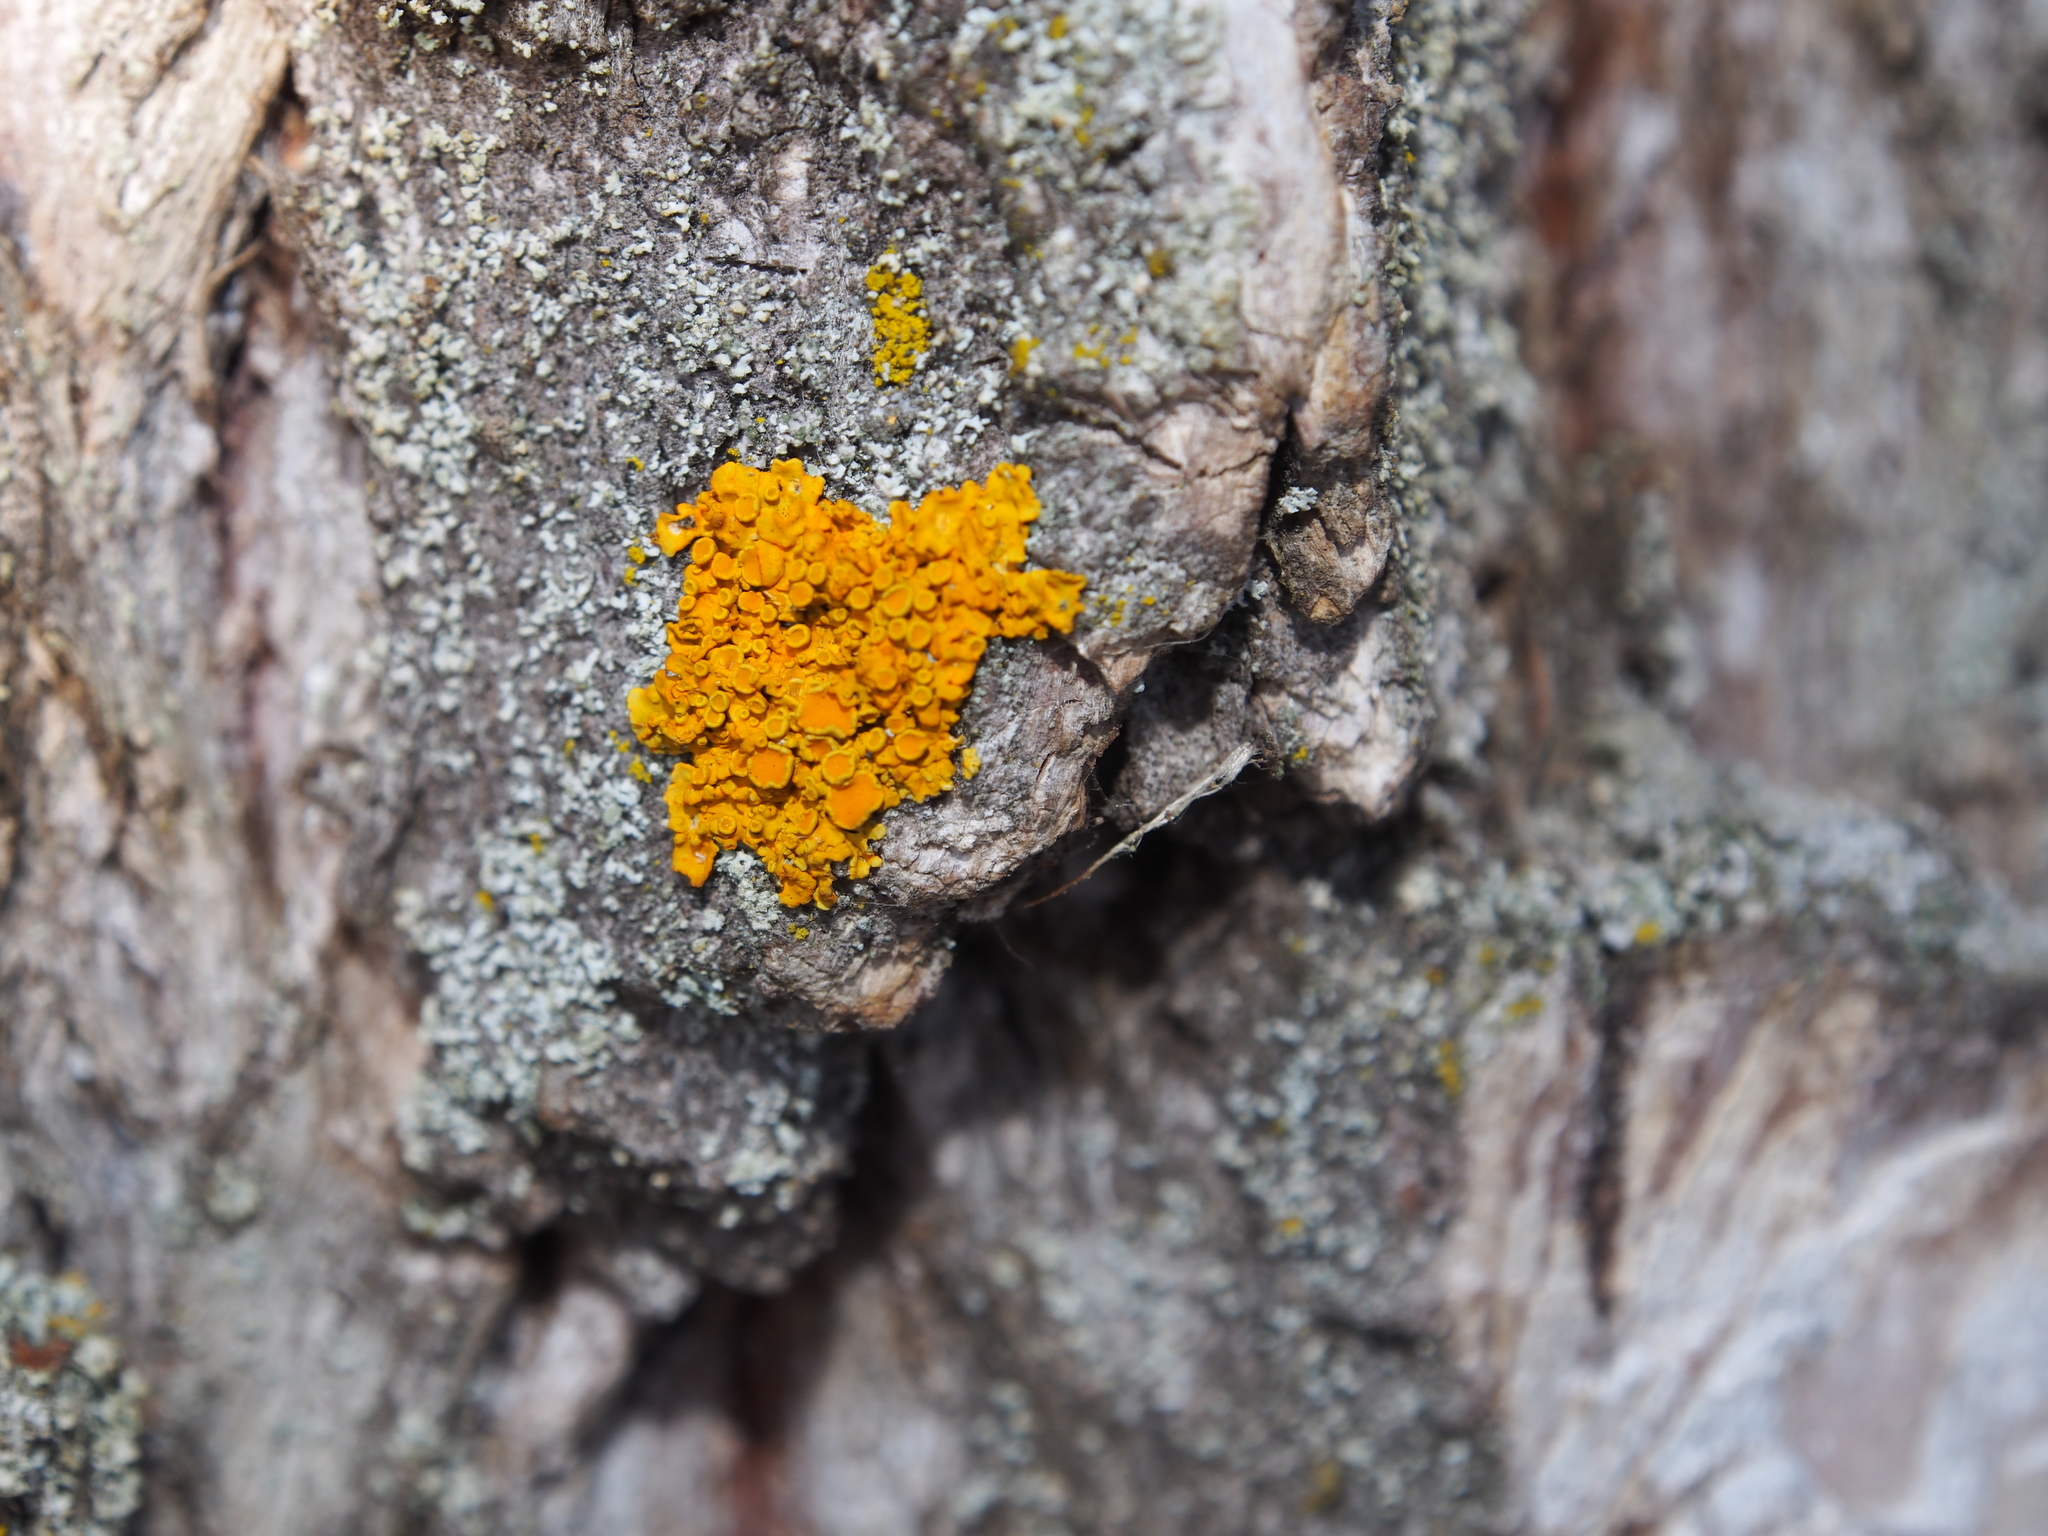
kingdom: Fungi
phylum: Ascomycota
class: Lecanoromycetes
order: Teloschistales
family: Teloschistaceae
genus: Xanthoria
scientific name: Xanthoria parietina
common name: Common orange lichen
